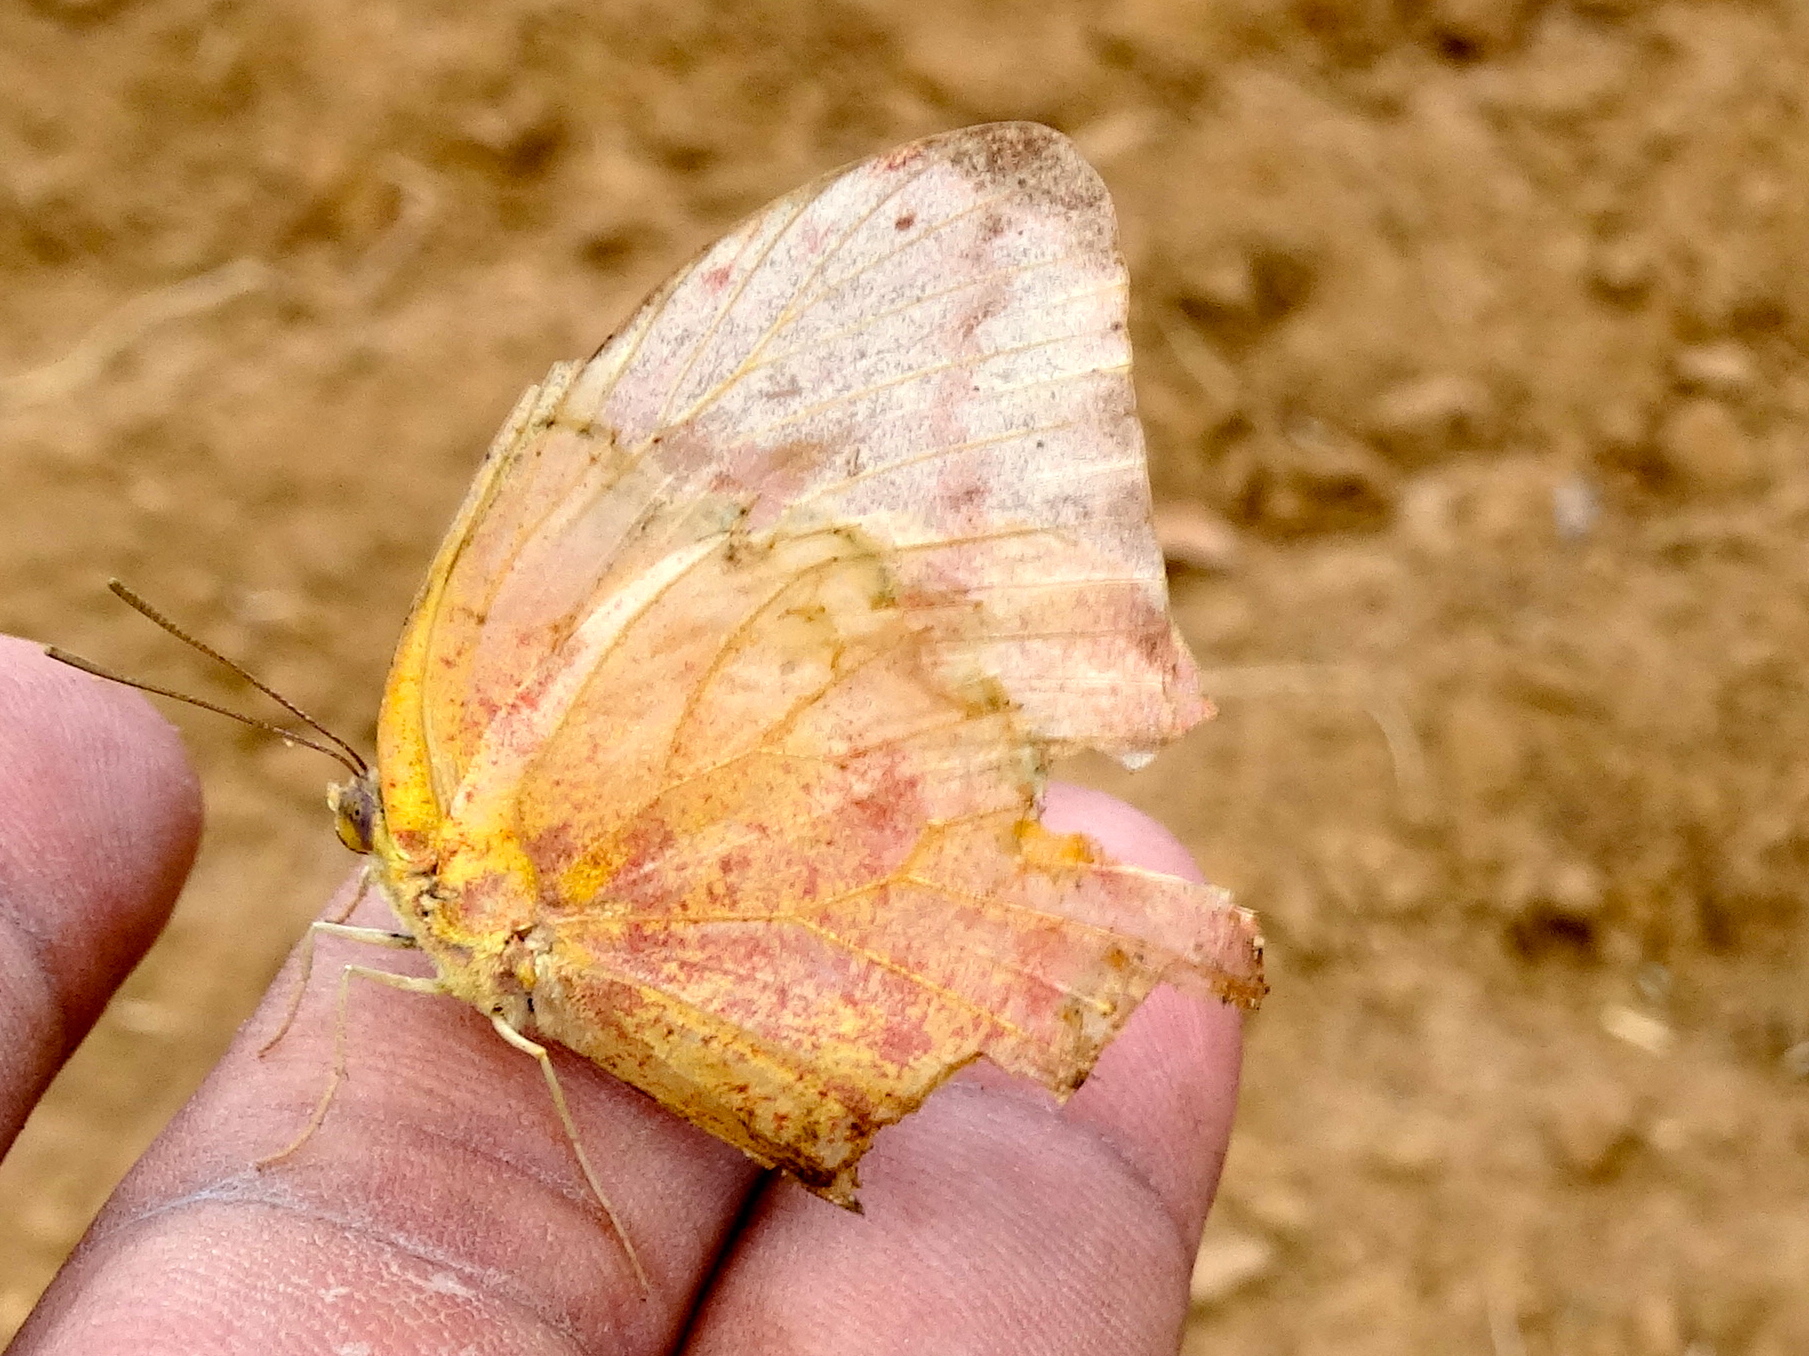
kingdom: Animalia
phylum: Arthropoda
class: Insecta
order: Lepidoptera
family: Pieridae
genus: Phoebis
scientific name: Phoebis
